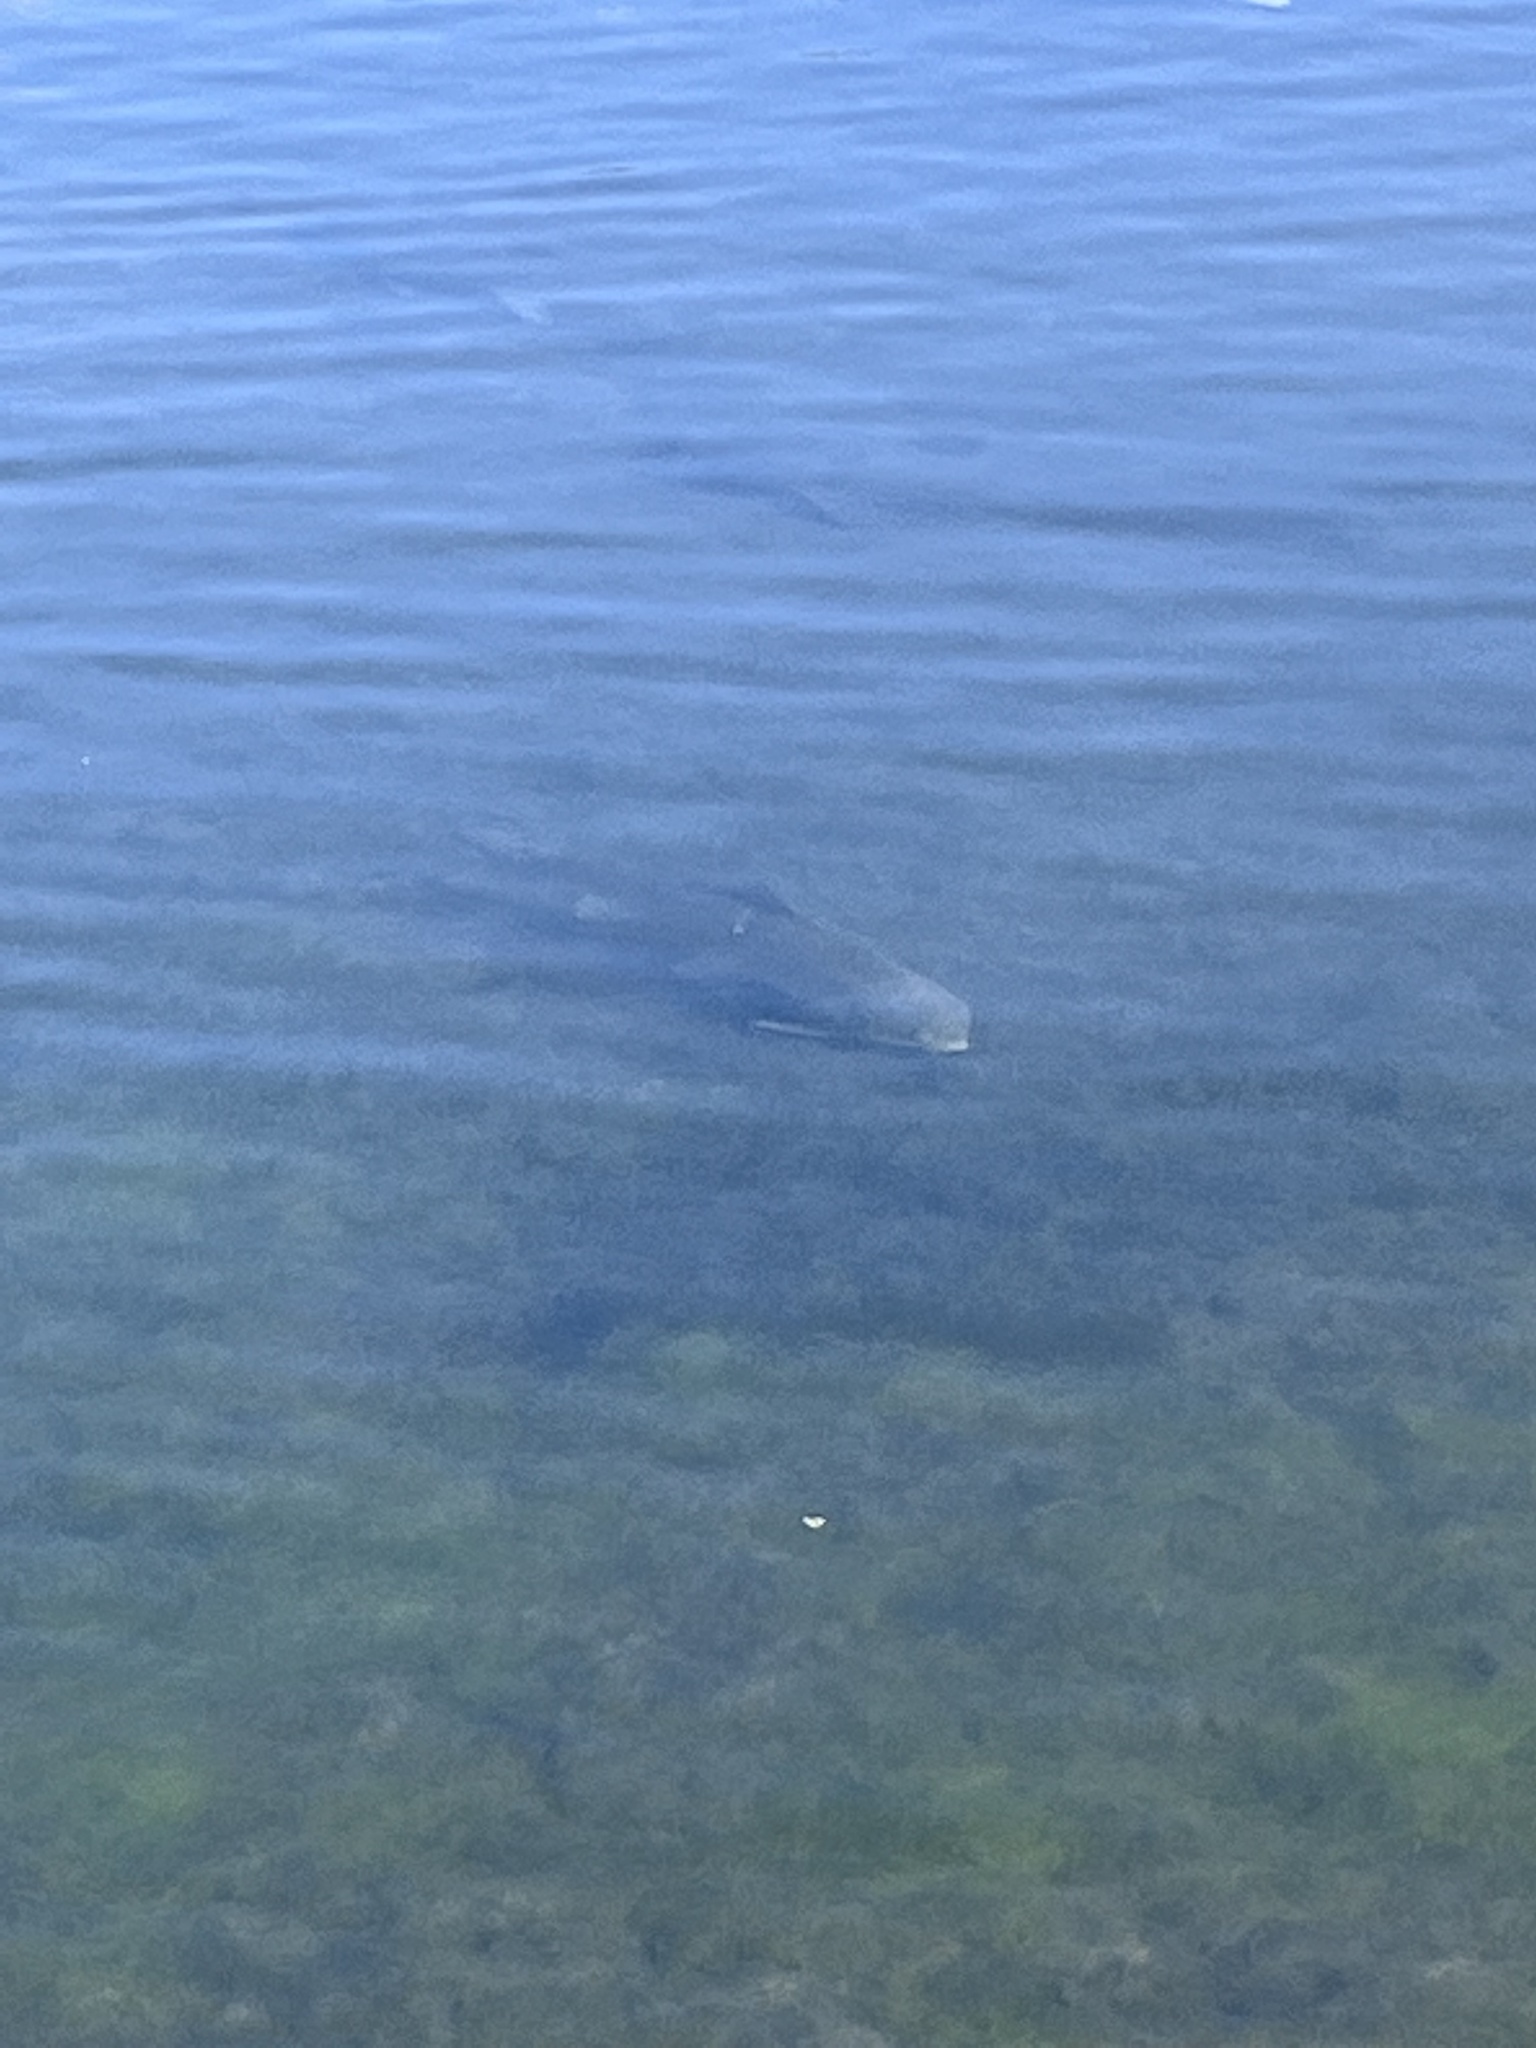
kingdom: Animalia
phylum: Chordata
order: Cypriniformes
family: Catostomidae
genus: Carpiodes
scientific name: Carpiodes carpio
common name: River carpsucker
